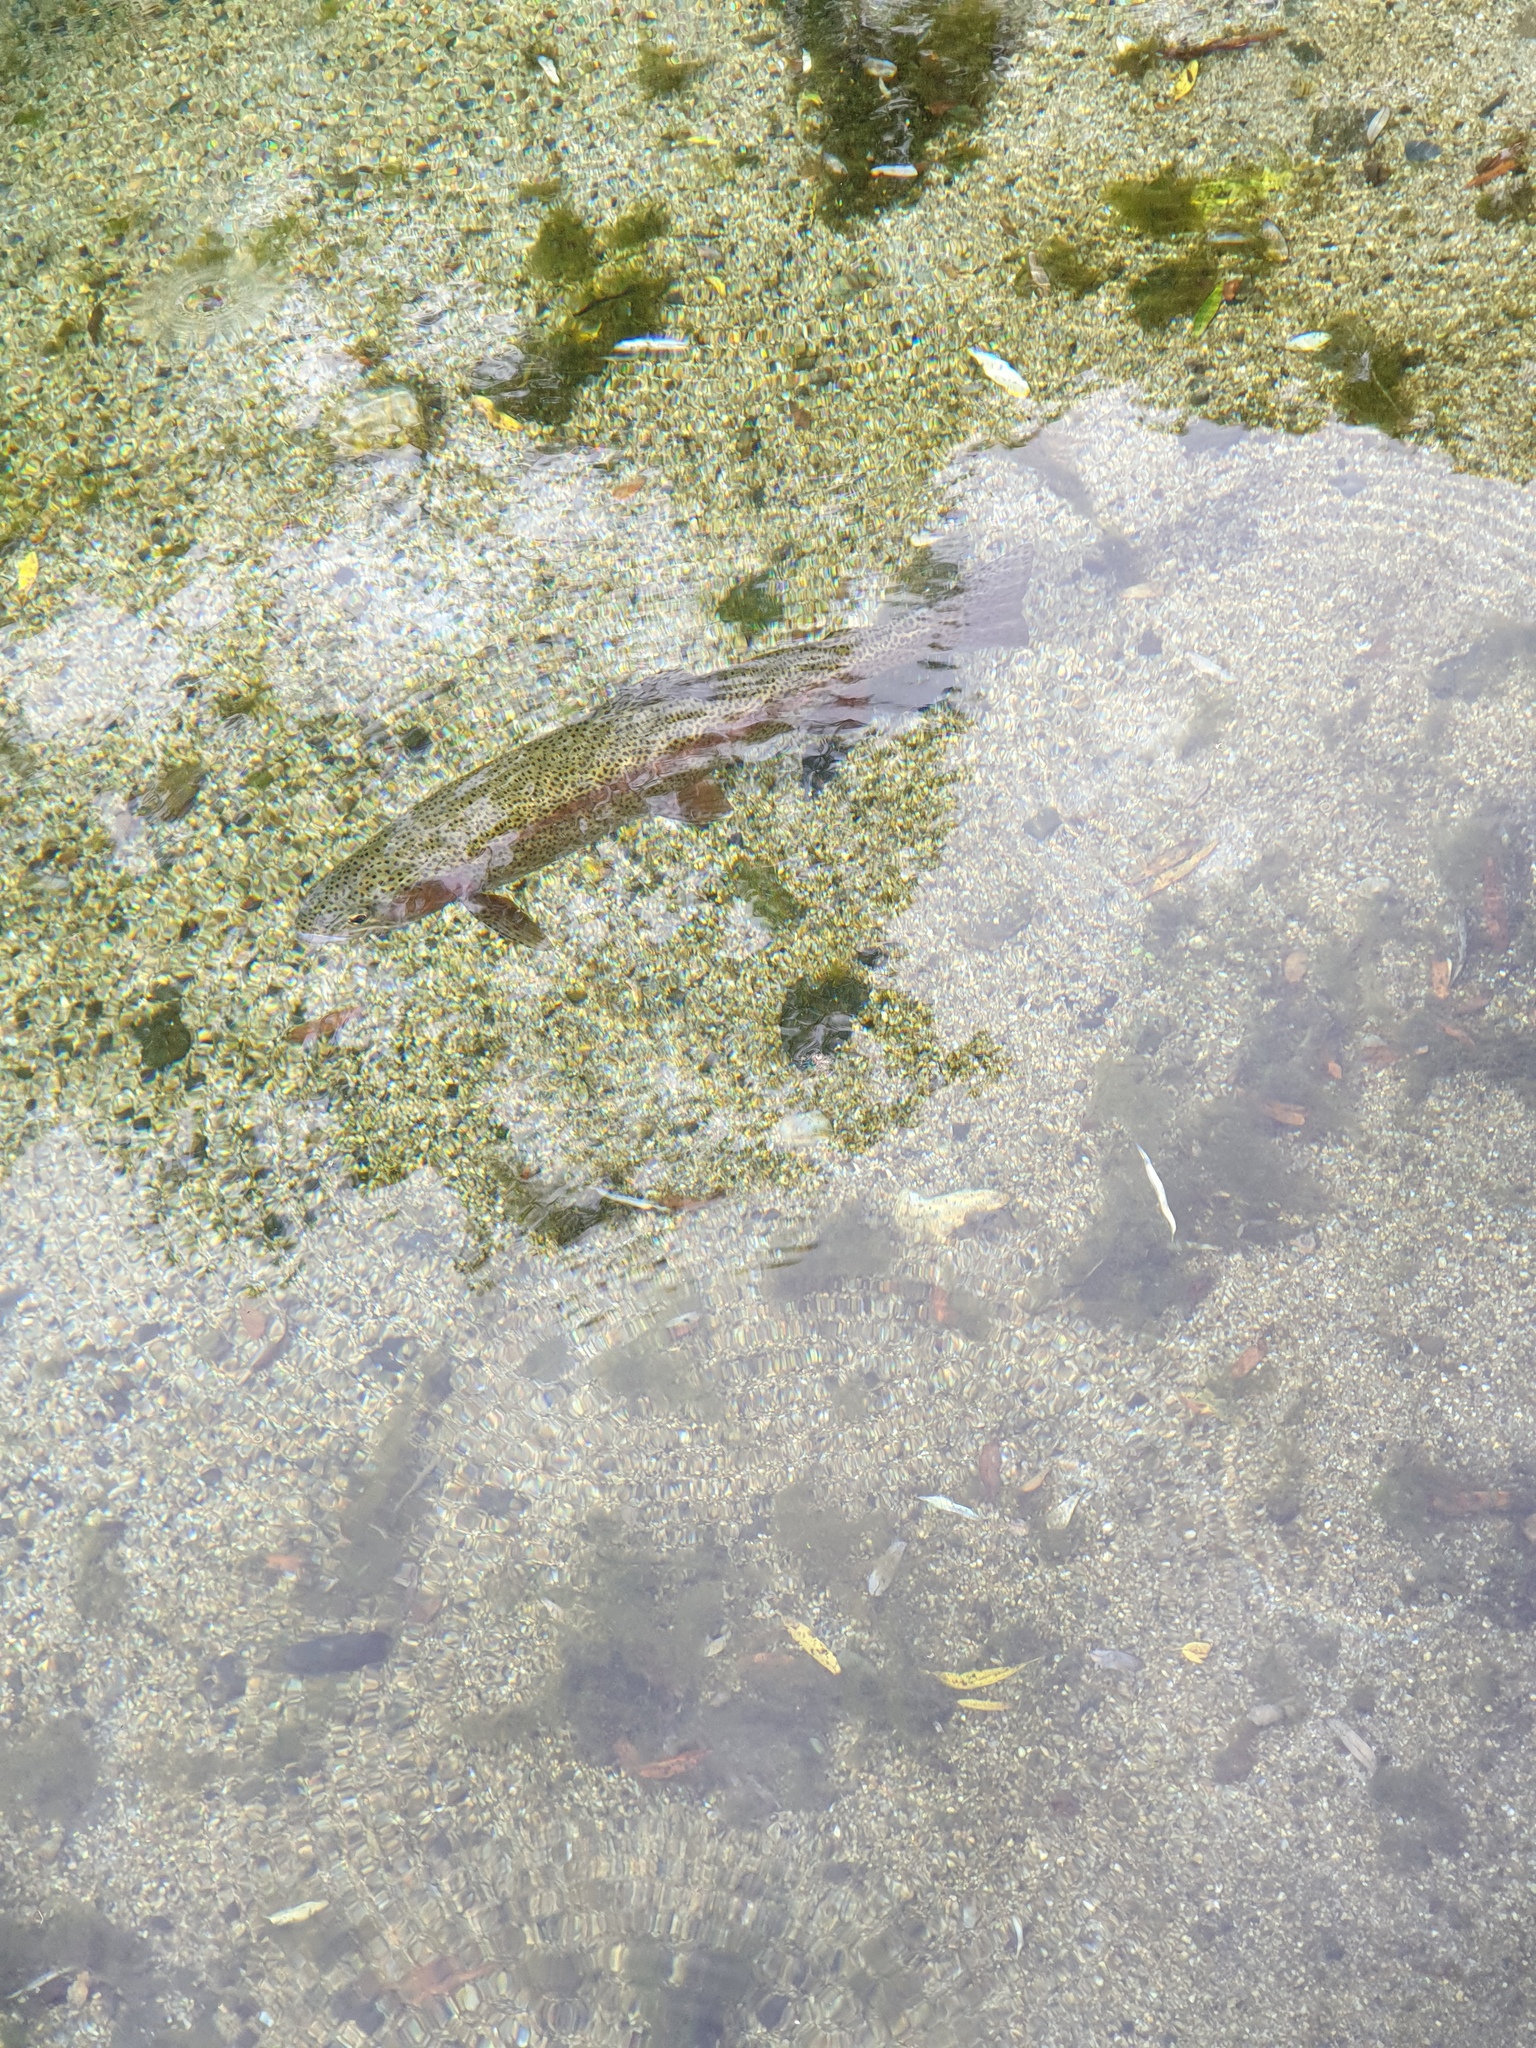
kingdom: Animalia
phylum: Chordata
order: Salmoniformes
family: Salmonidae
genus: Oncorhynchus
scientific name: Oncorhynchus mykiss
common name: Rainbow trout
